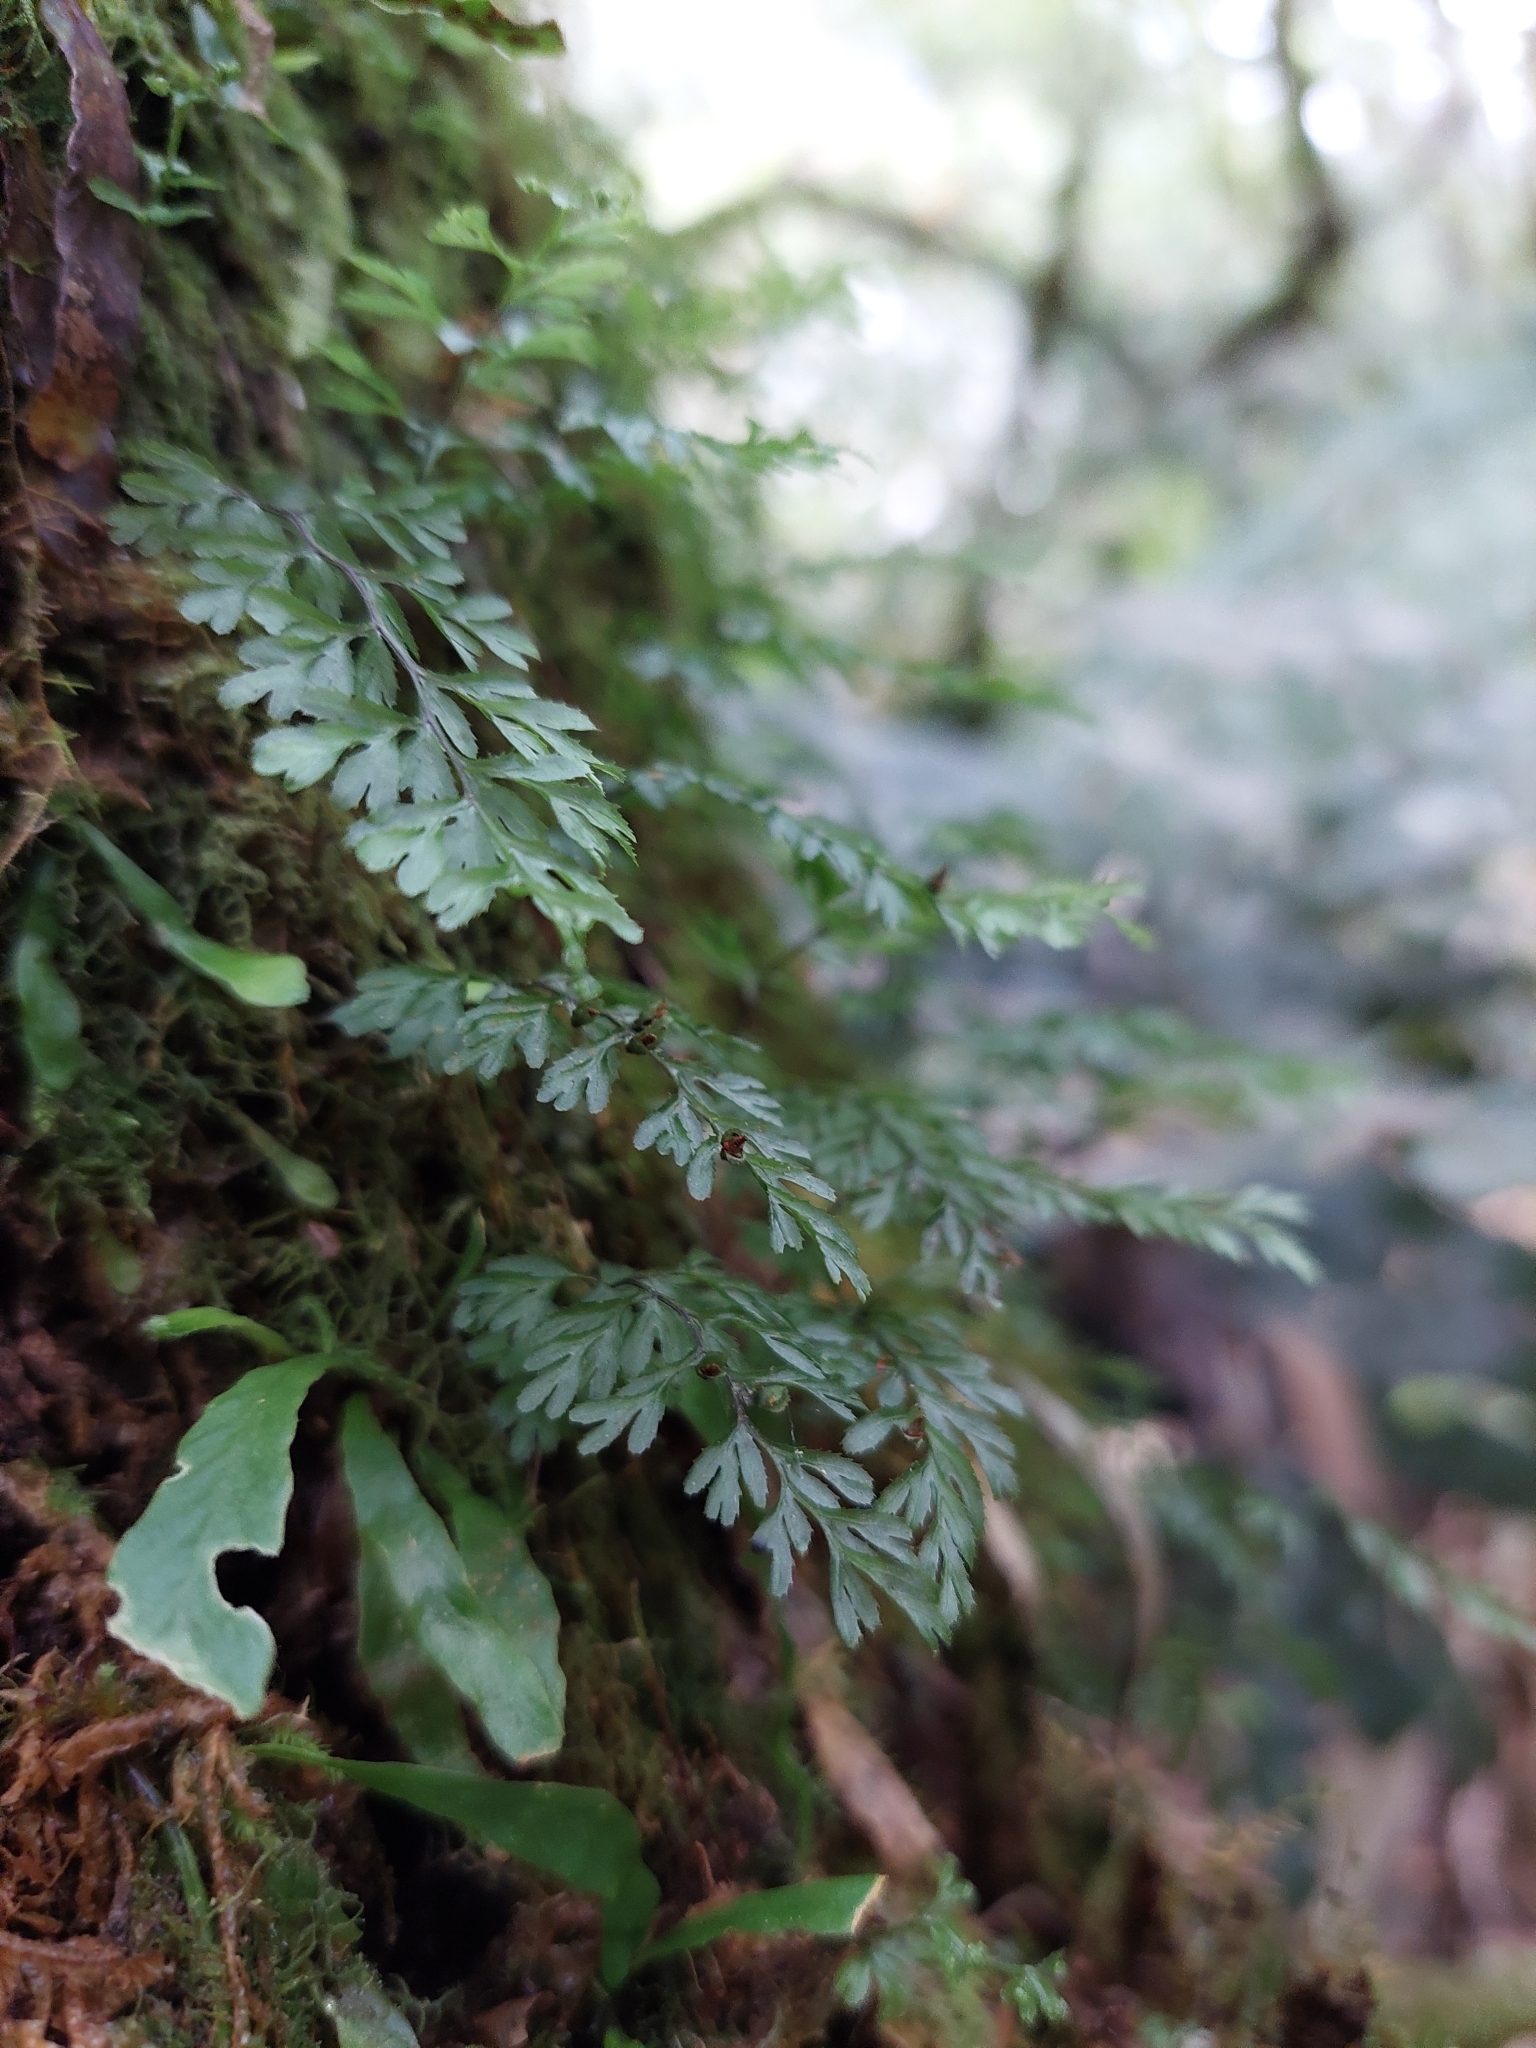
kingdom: Plantae
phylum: Tracheophyta
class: Polypodiopsida
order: Hymenophyllales
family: Hymenophyllaceae
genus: Hymenophyllum
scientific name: Hymenophyllum cupressiforme
